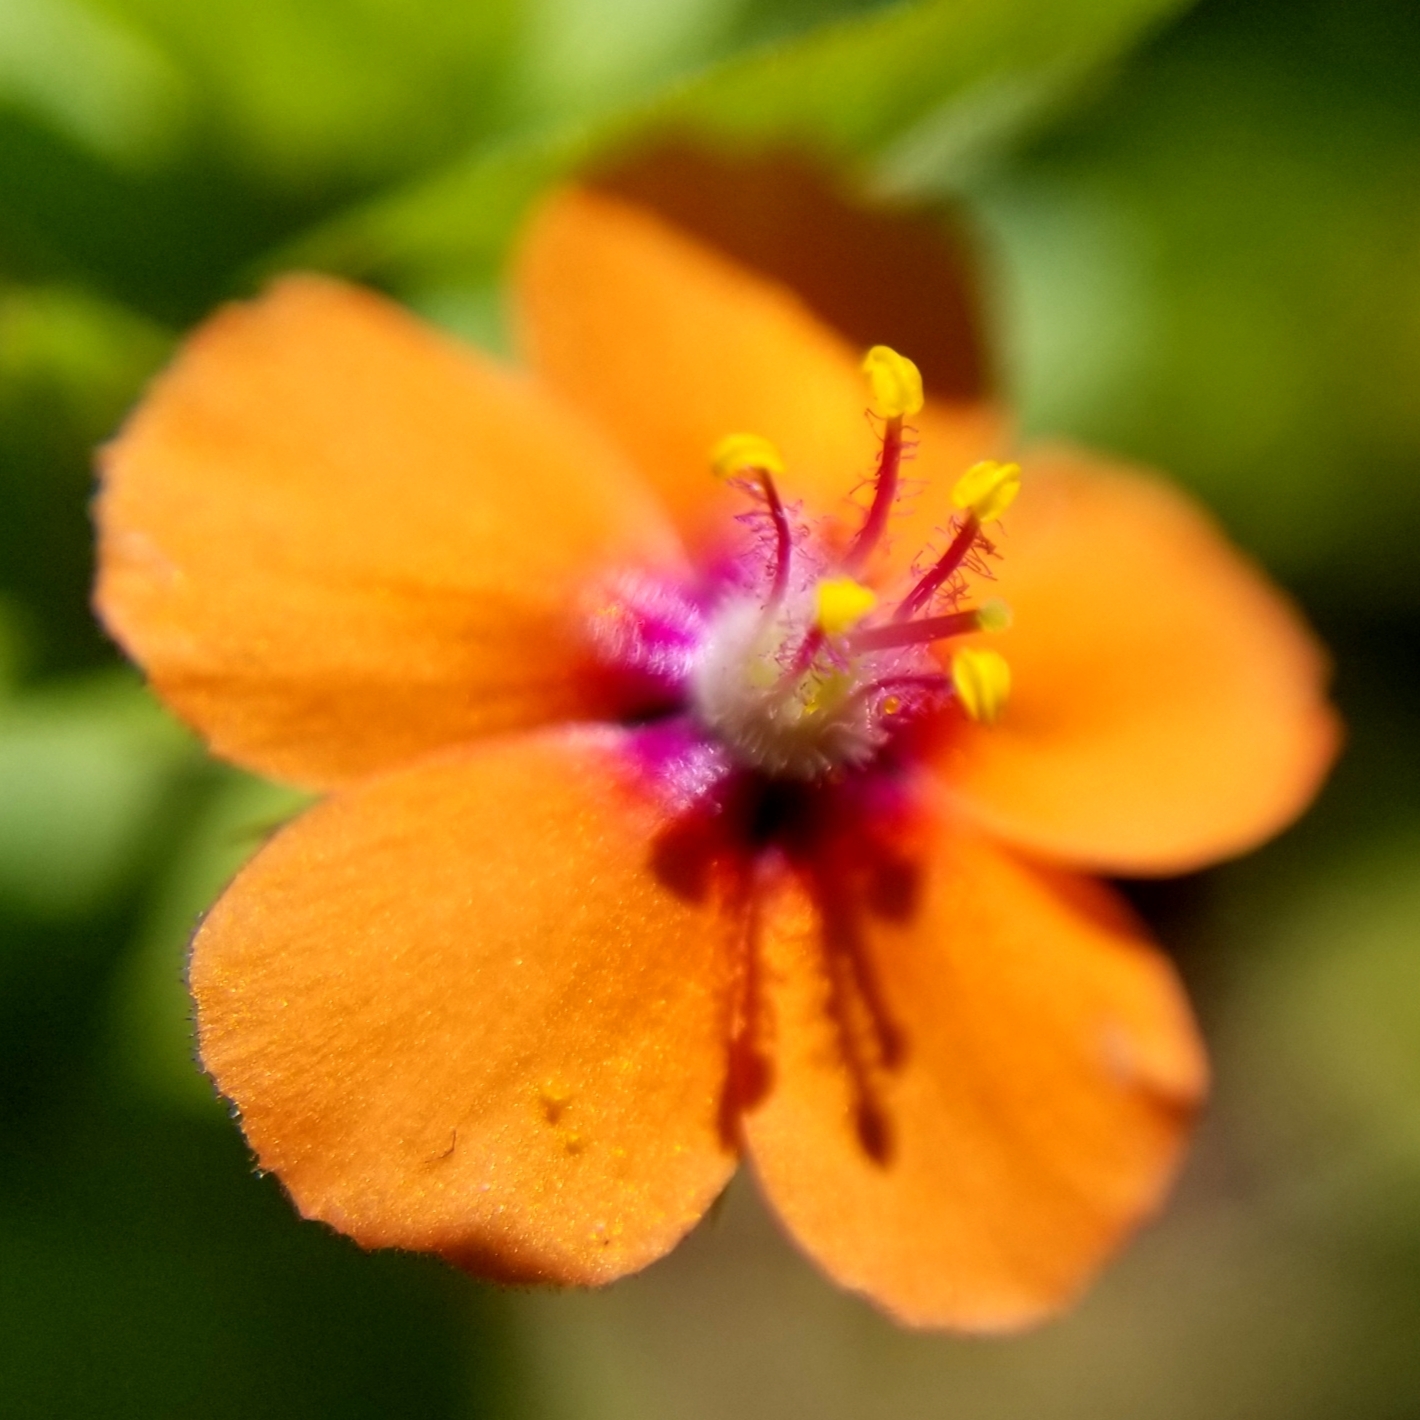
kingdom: Plantae
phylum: Tracheophyta
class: Magnoliopsida
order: Ericales
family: Primulaceae
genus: Lysimachia
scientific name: Lysimachia arvensis
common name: Scarlet pimpernel
